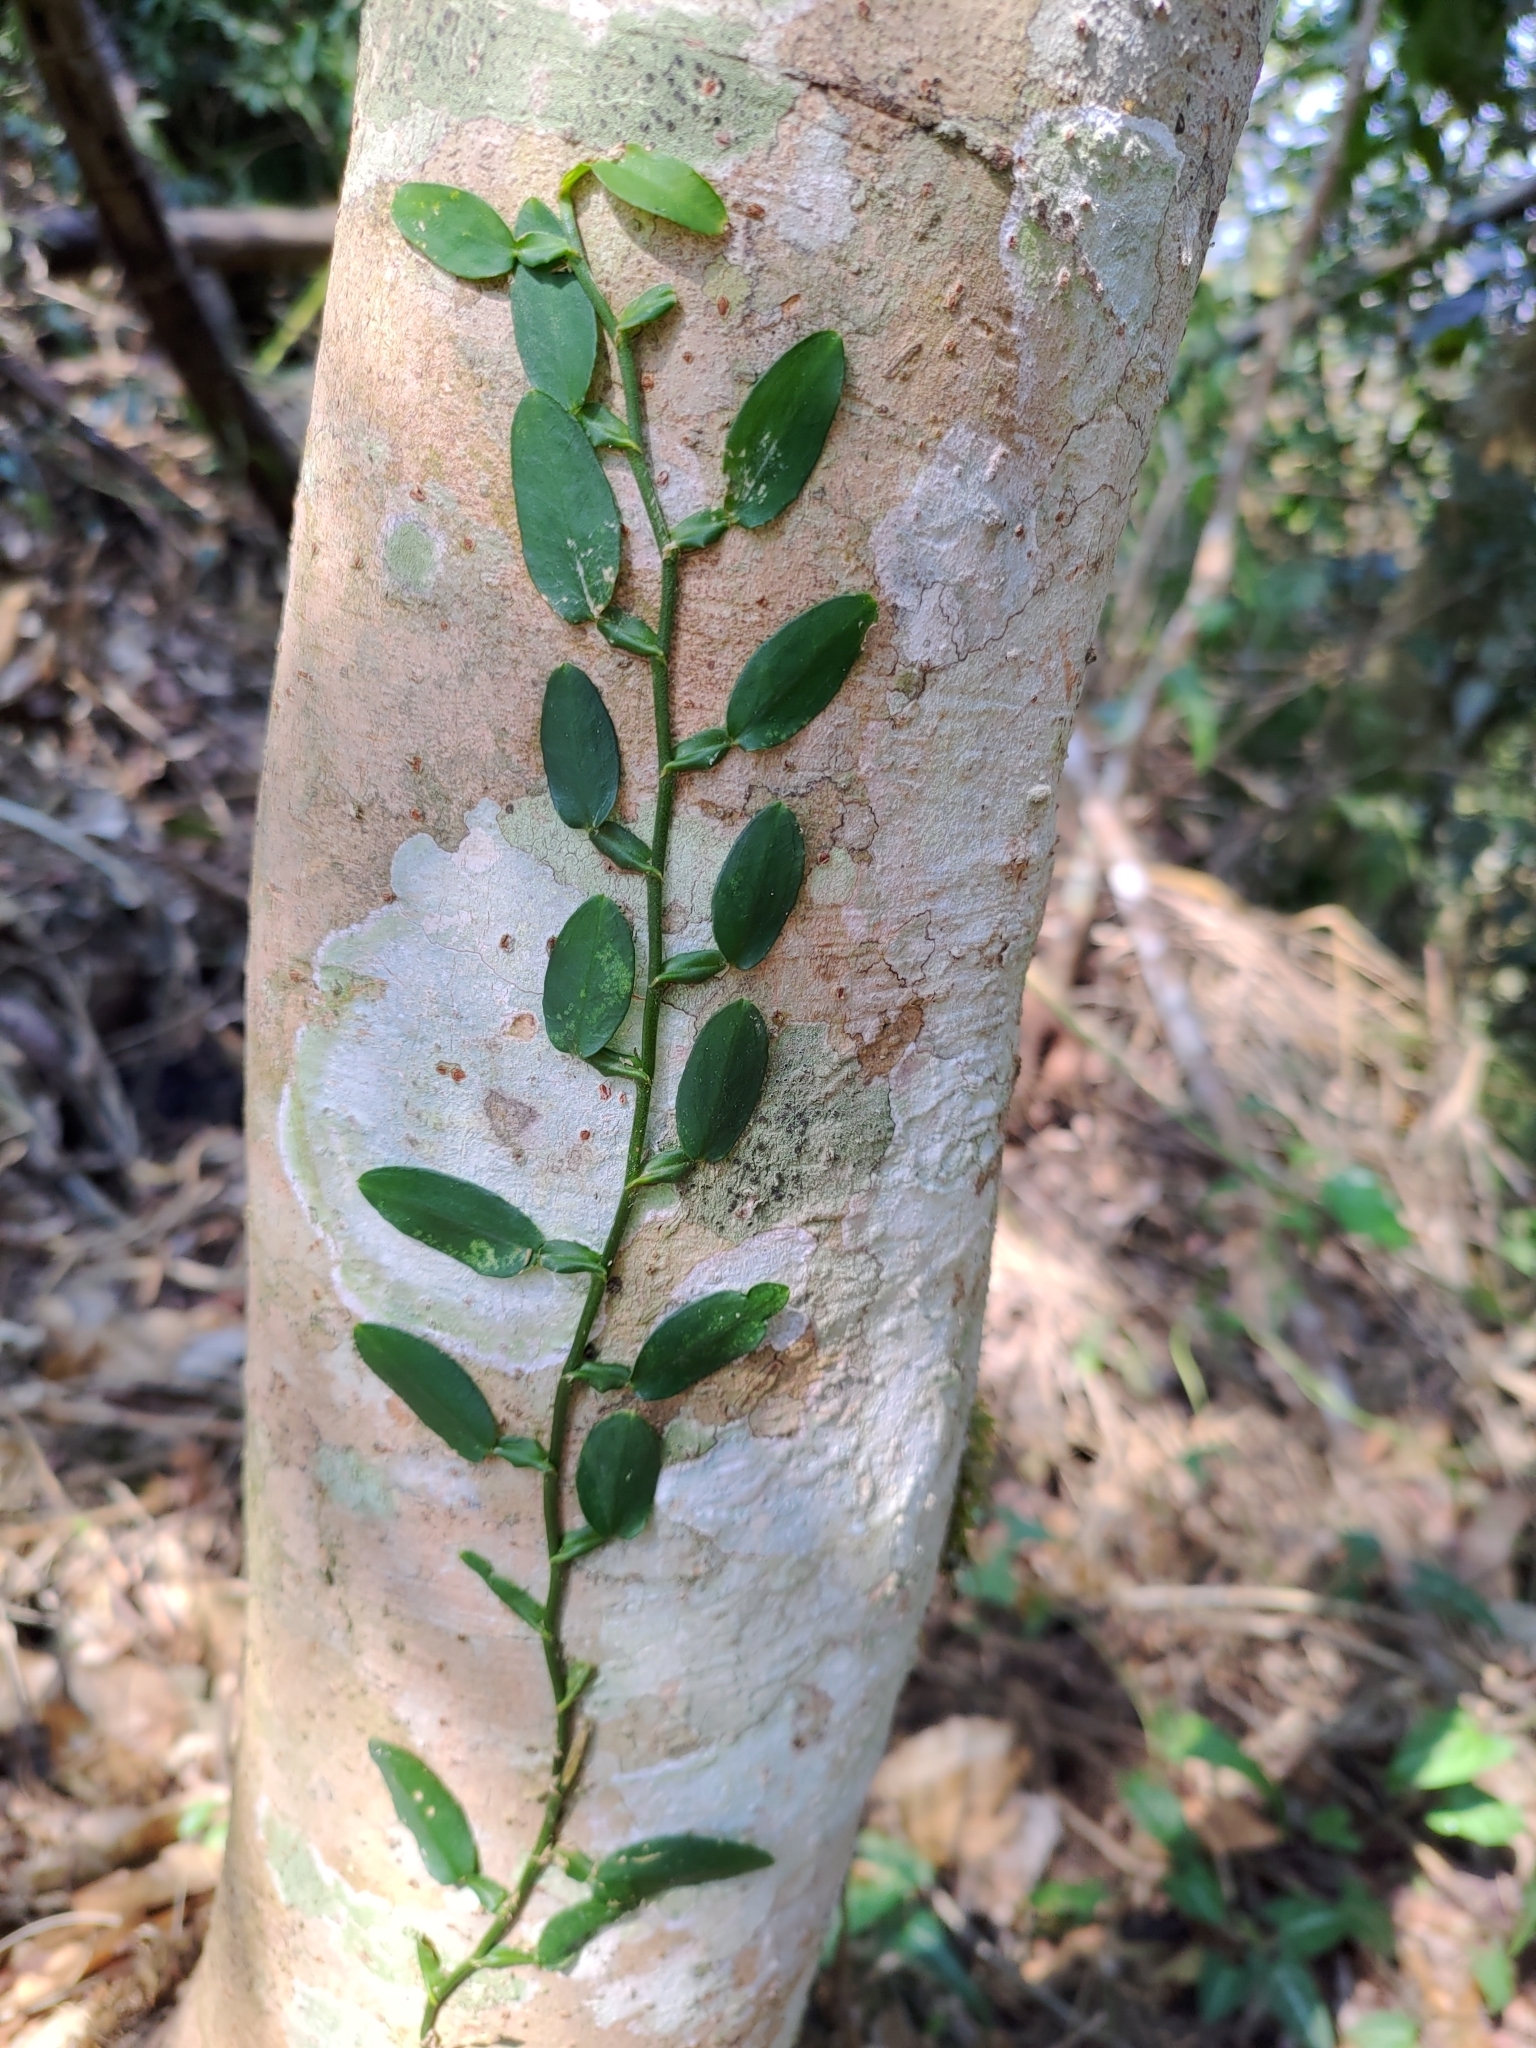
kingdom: Plantae
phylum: Tracheophyta
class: Liliopsida
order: Alismatales
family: Araceae
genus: Pothos
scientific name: Pothos chinensis
